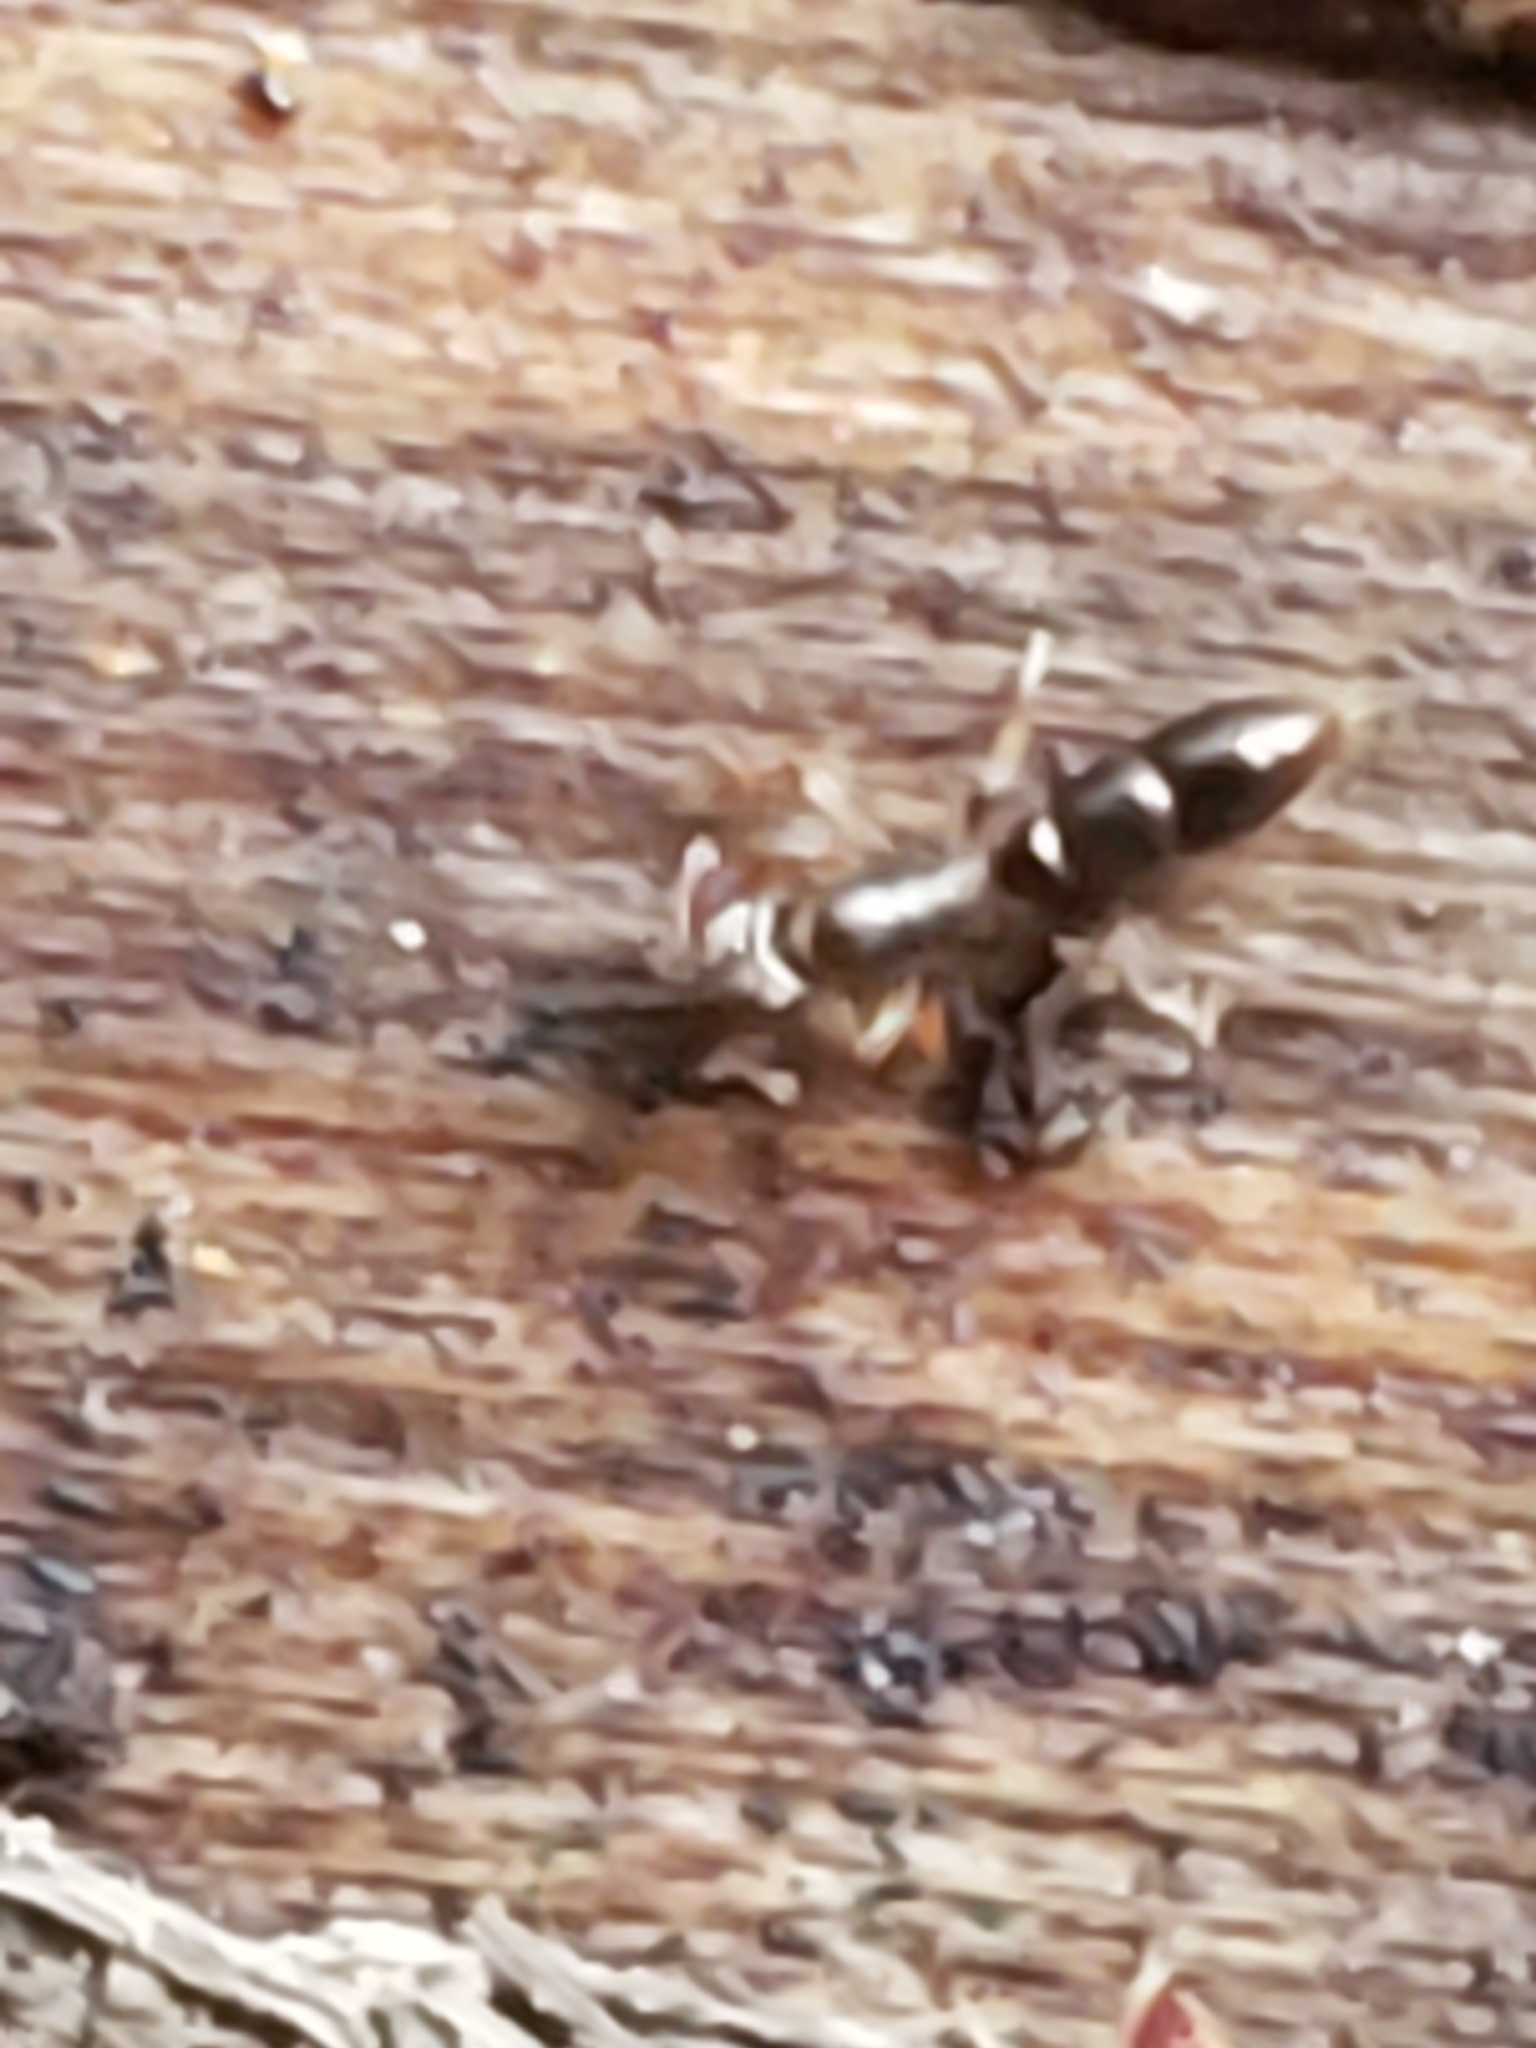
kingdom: Animalia
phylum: Arthropoda
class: Insecta
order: Hymenoptera
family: Formicidae
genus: Ponera
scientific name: Ponera pennsylvanica
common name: Pennsylvania ponera
